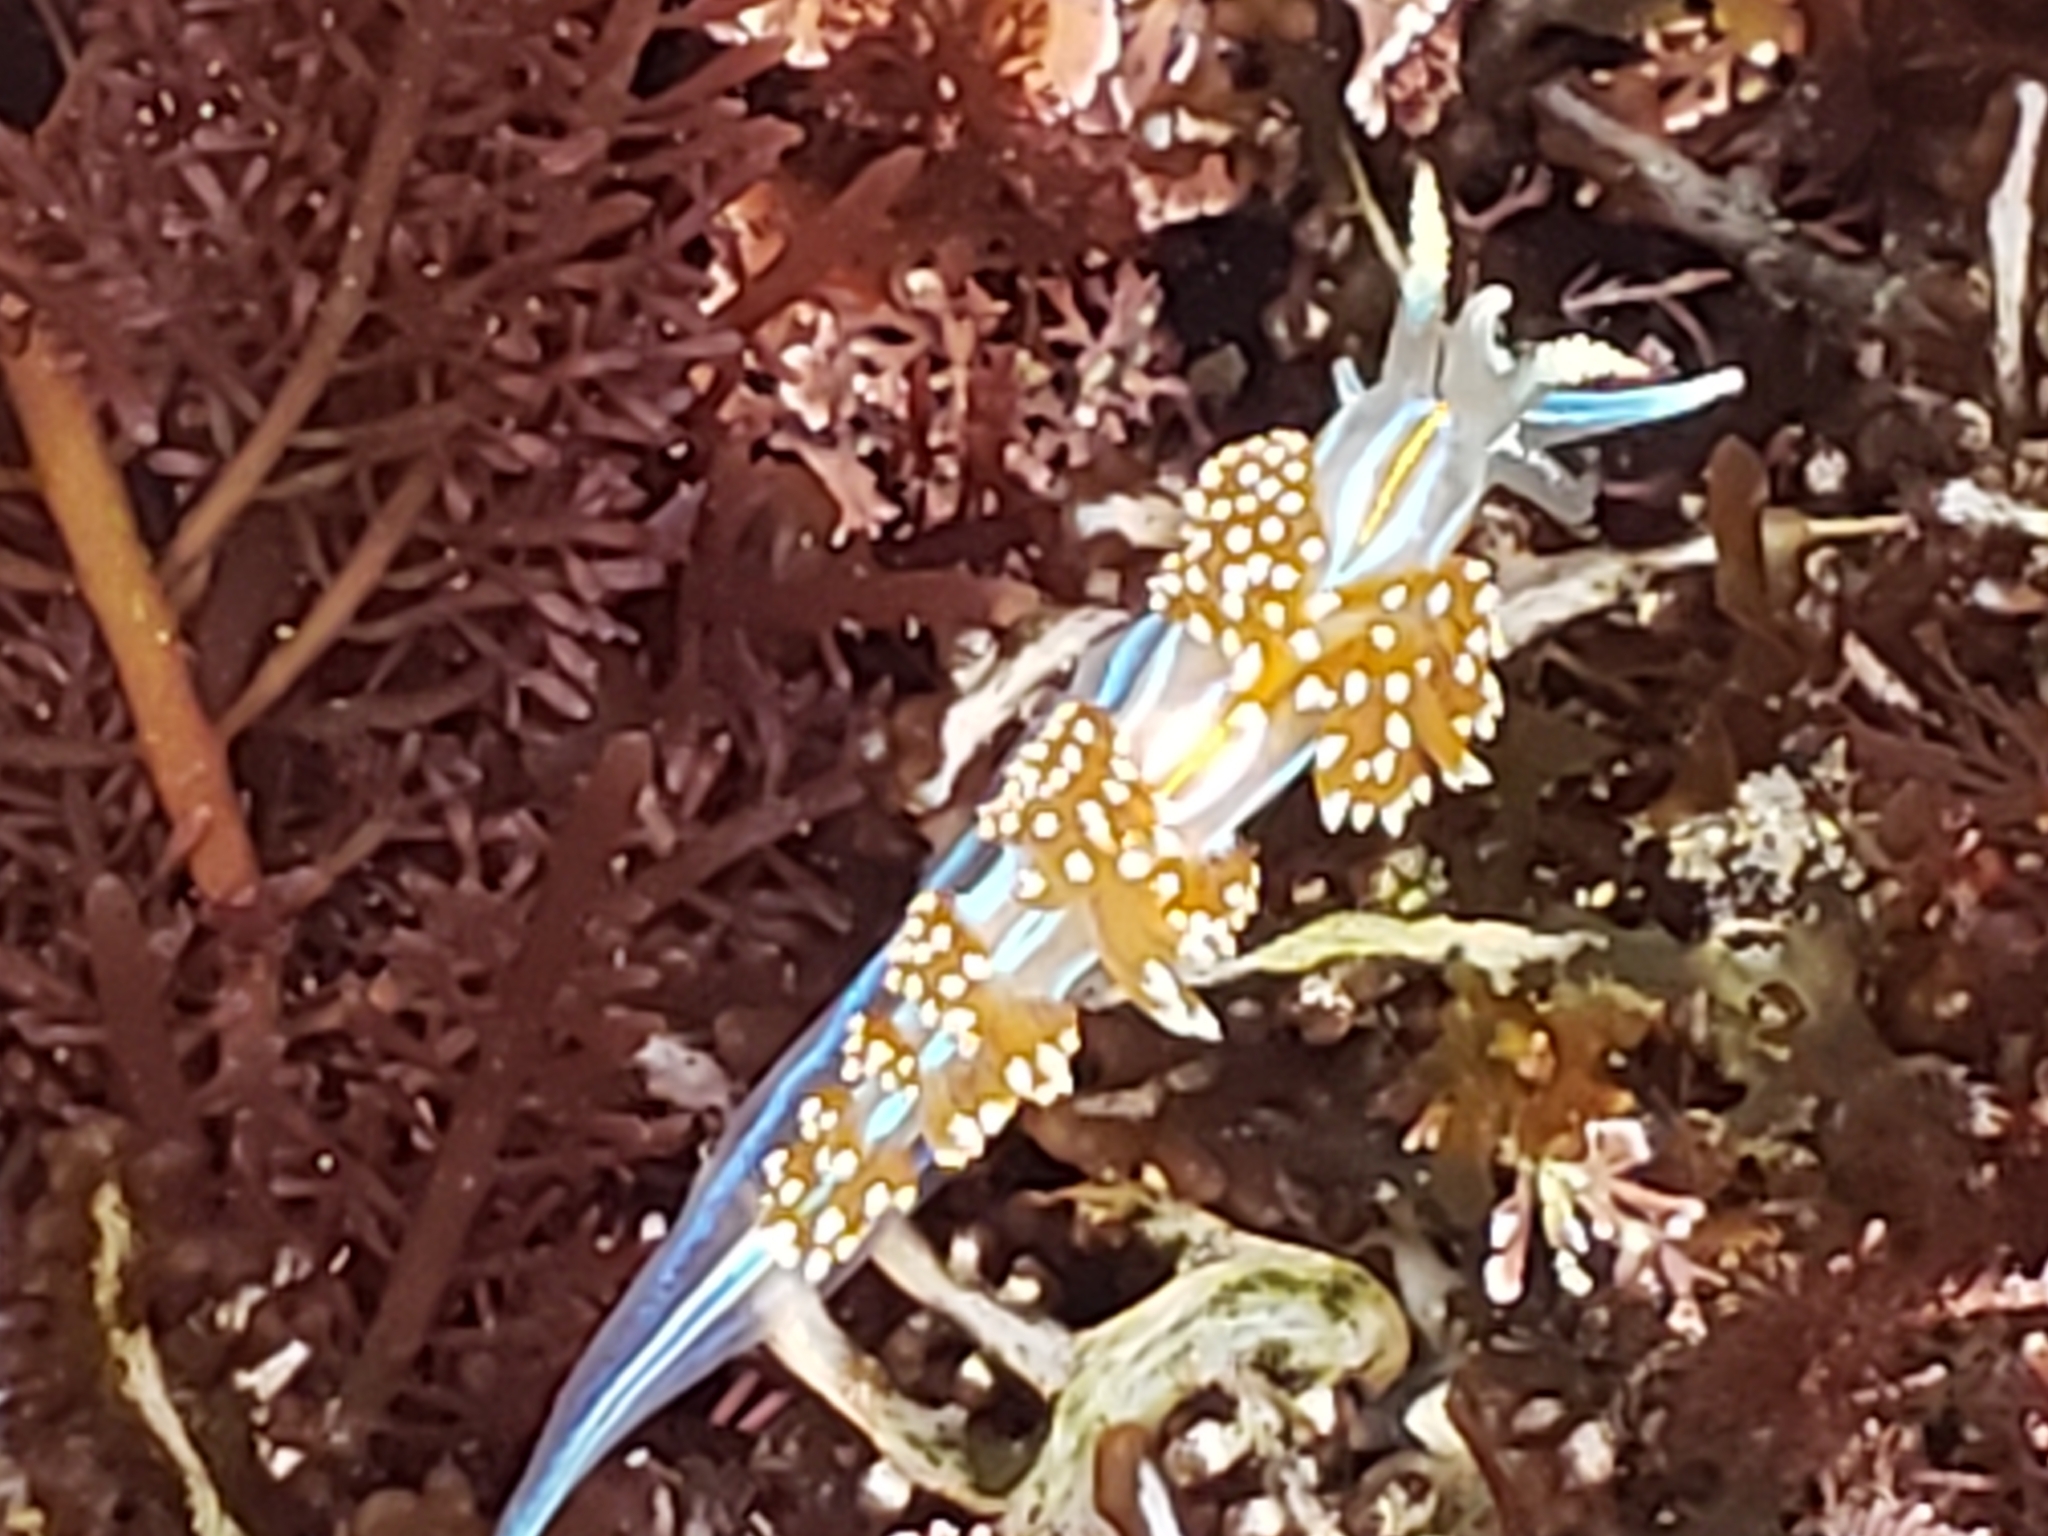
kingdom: Animalia
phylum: Mollusca
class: Gastropoda
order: Nudibranchia
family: Myrrhinidae
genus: Hermissenda
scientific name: Hermissenda opalescens
